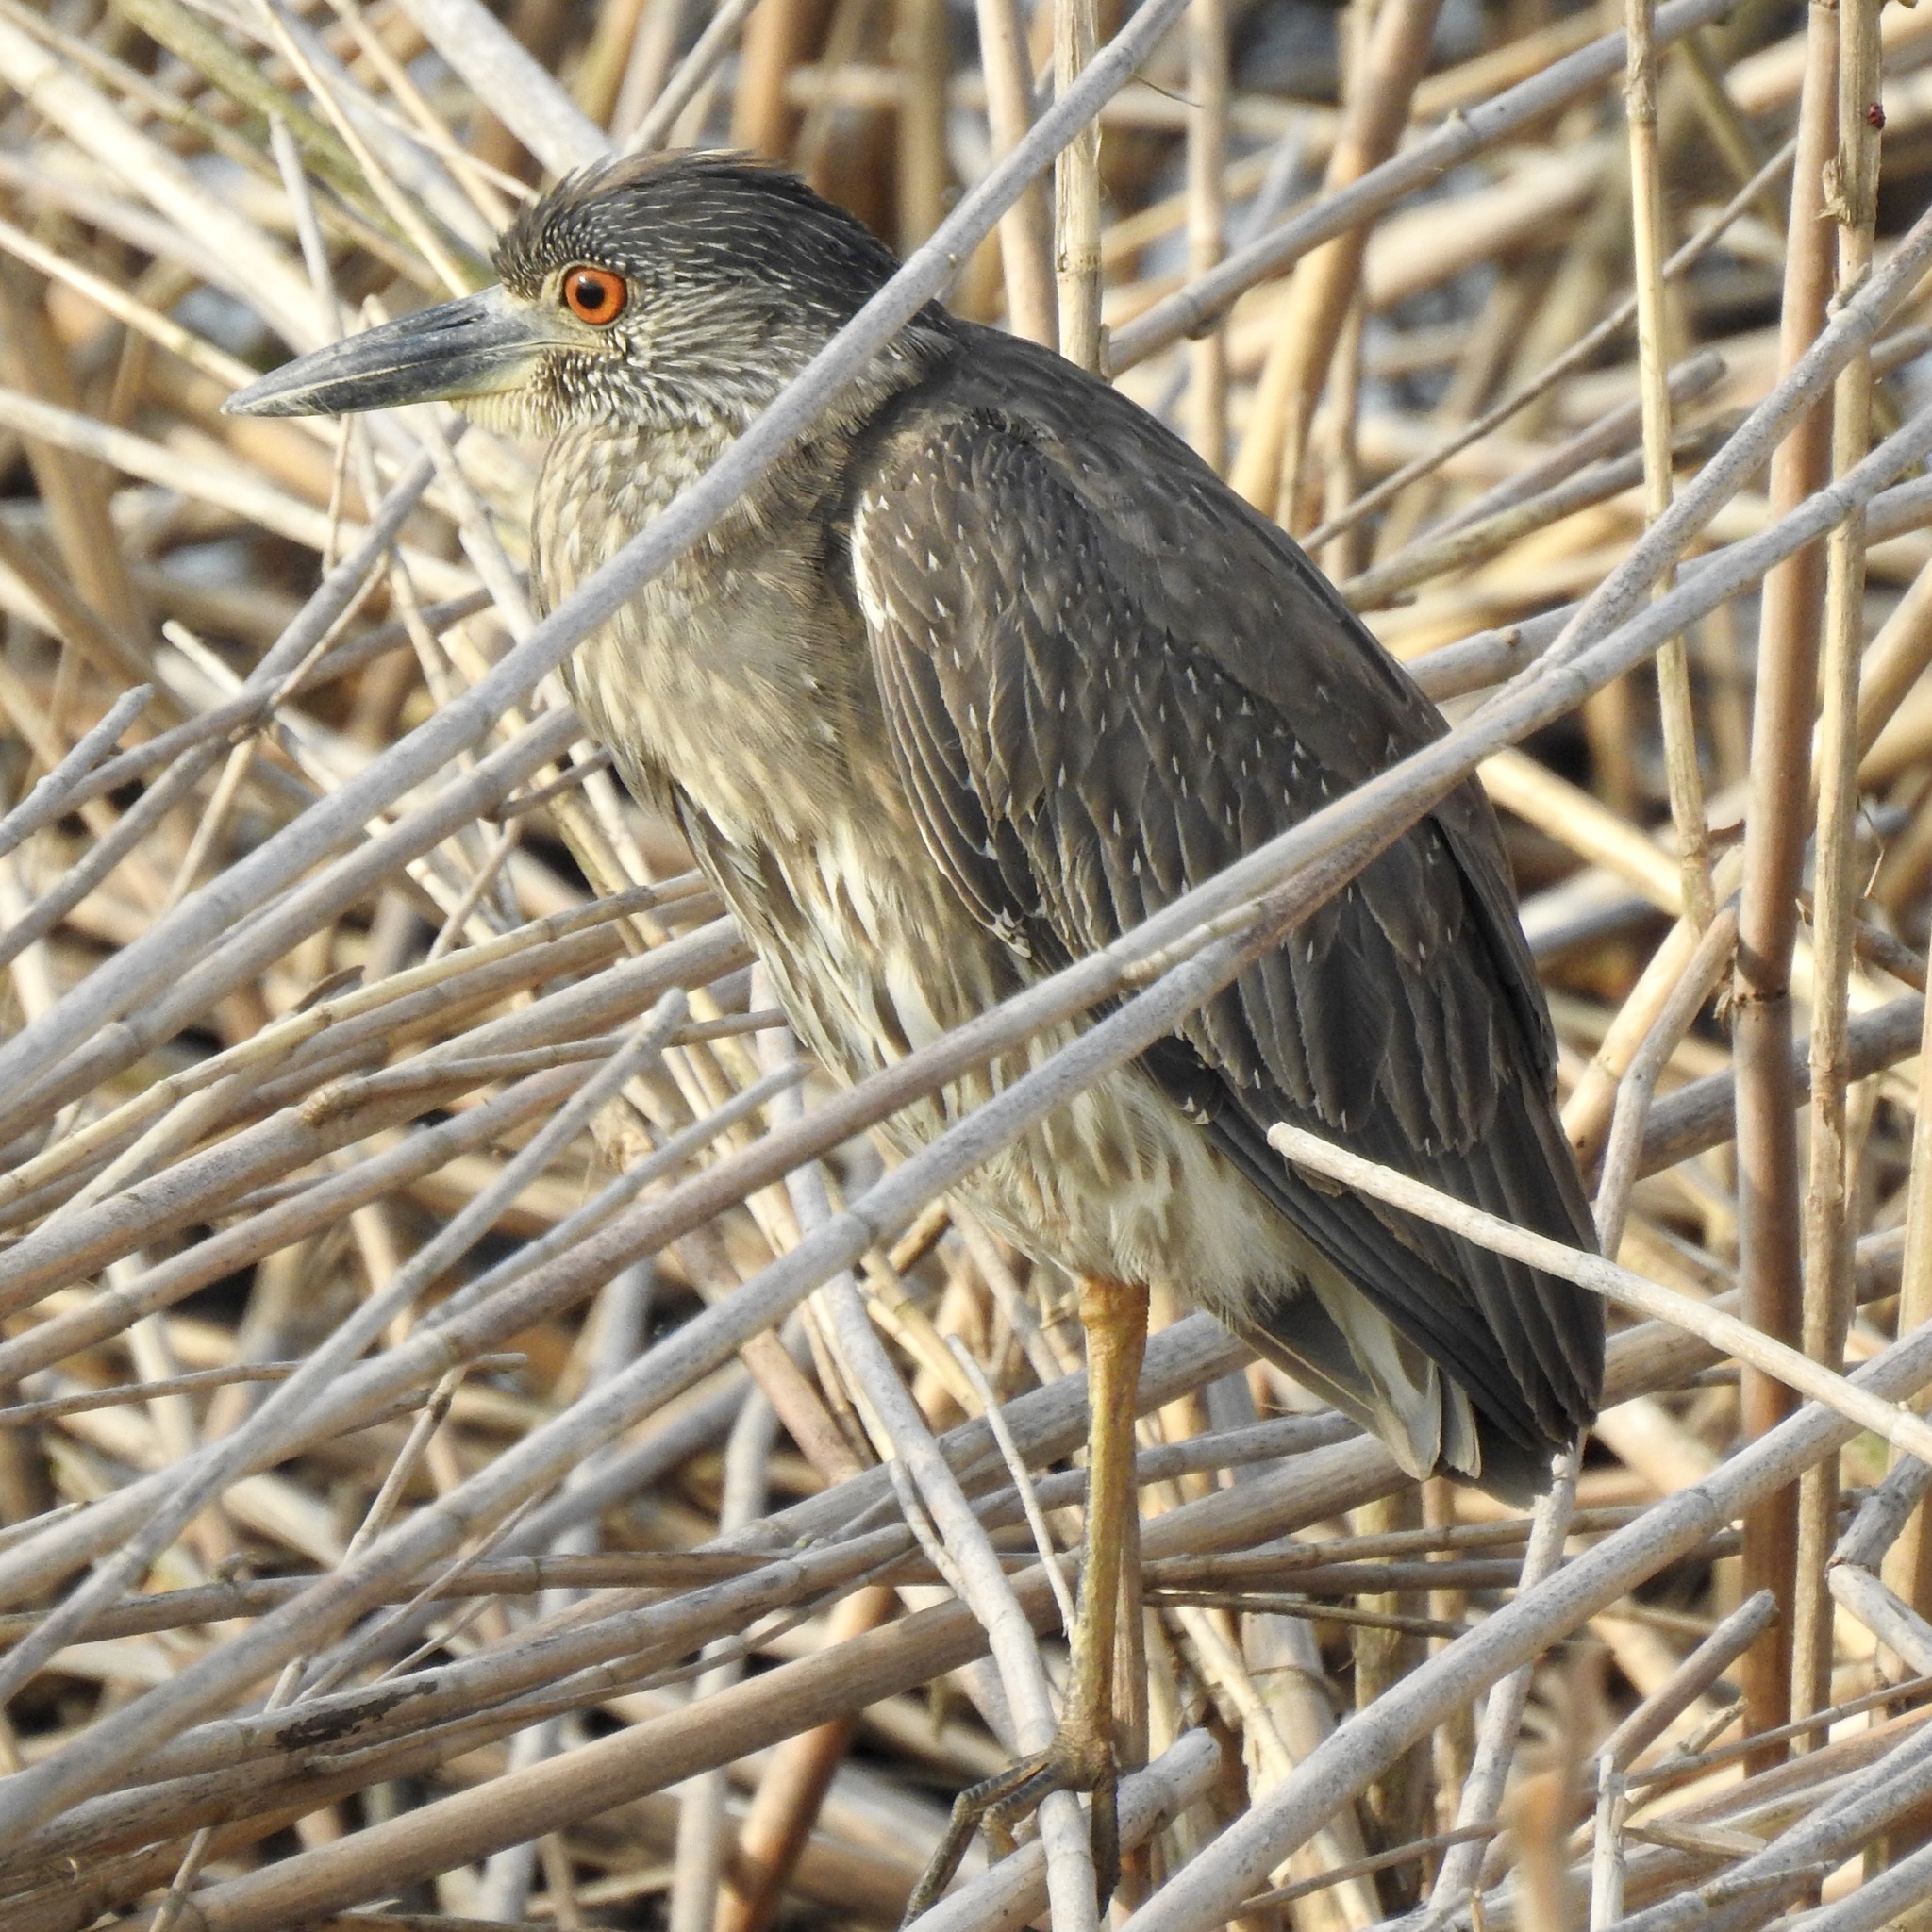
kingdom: Animalia
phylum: Chordata
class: Aves
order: Pelecaniformes
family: Ardeidae
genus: Nyctanassa
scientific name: Nyctanassa violacea
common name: Yellow-crowned night heron
